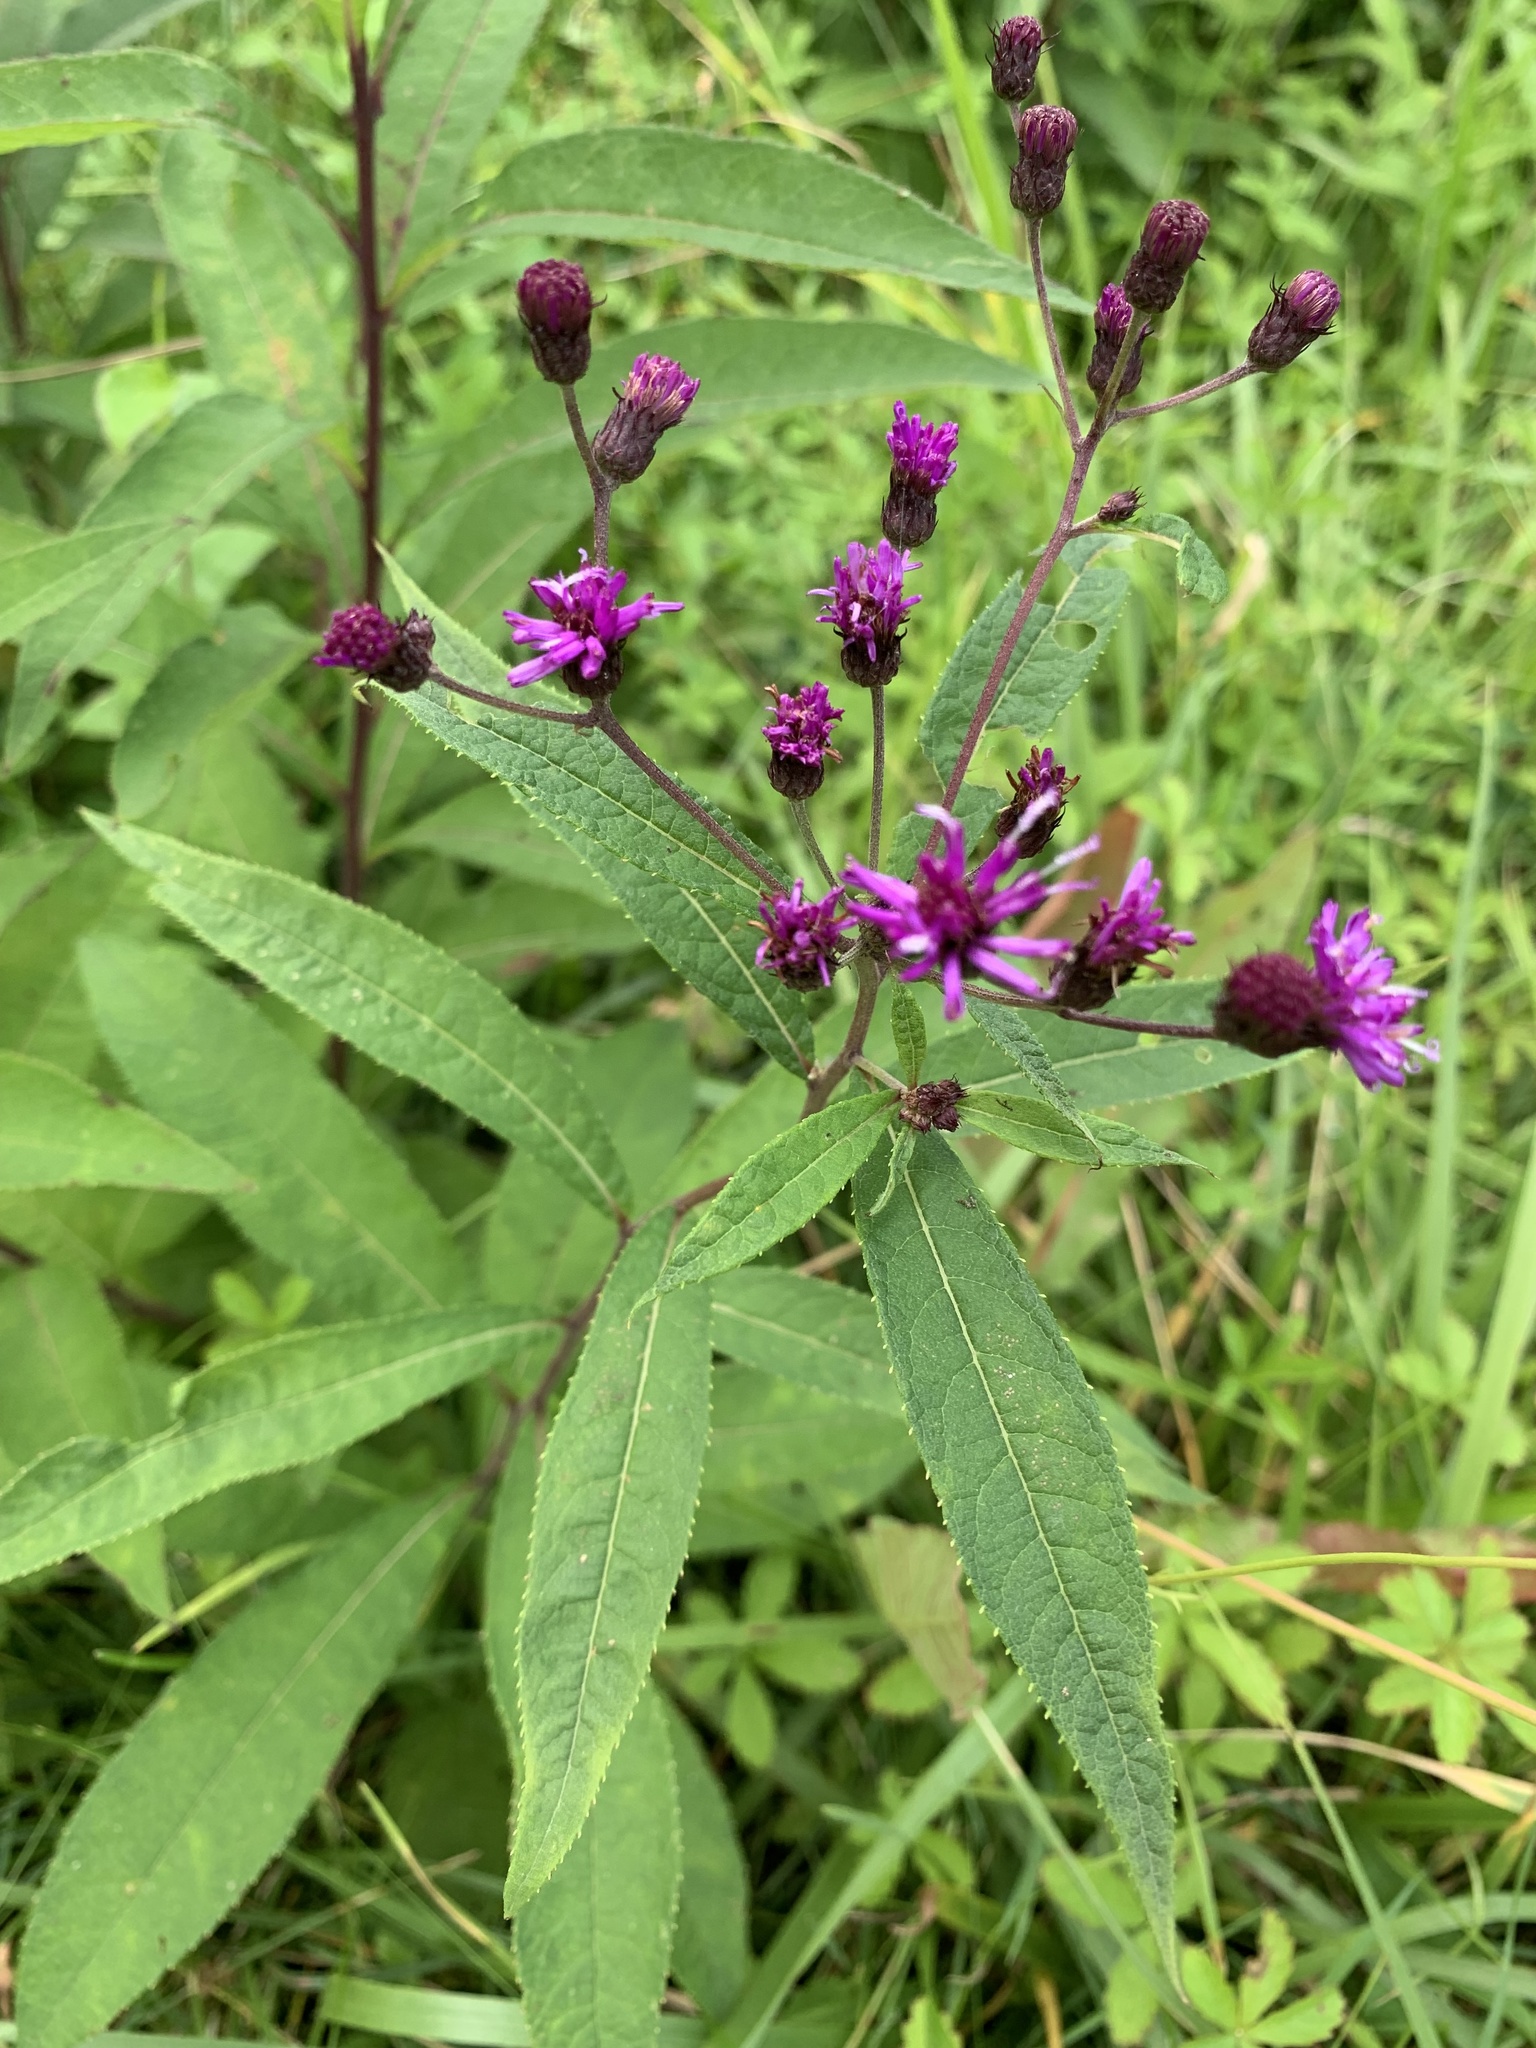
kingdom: Plantae
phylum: Tracheophyta
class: Magnoliopsida
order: Asterales
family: Asteraceae
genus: Vernonia
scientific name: Vernonia noveboracensis
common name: New york ironweed
